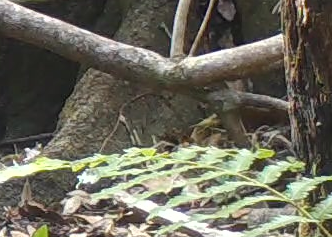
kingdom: Animalia
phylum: Chordata
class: Aves
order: Passeriformes
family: Parulidae
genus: Seiurus
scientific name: Seiurus aurocapilla
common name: Ovenbird
